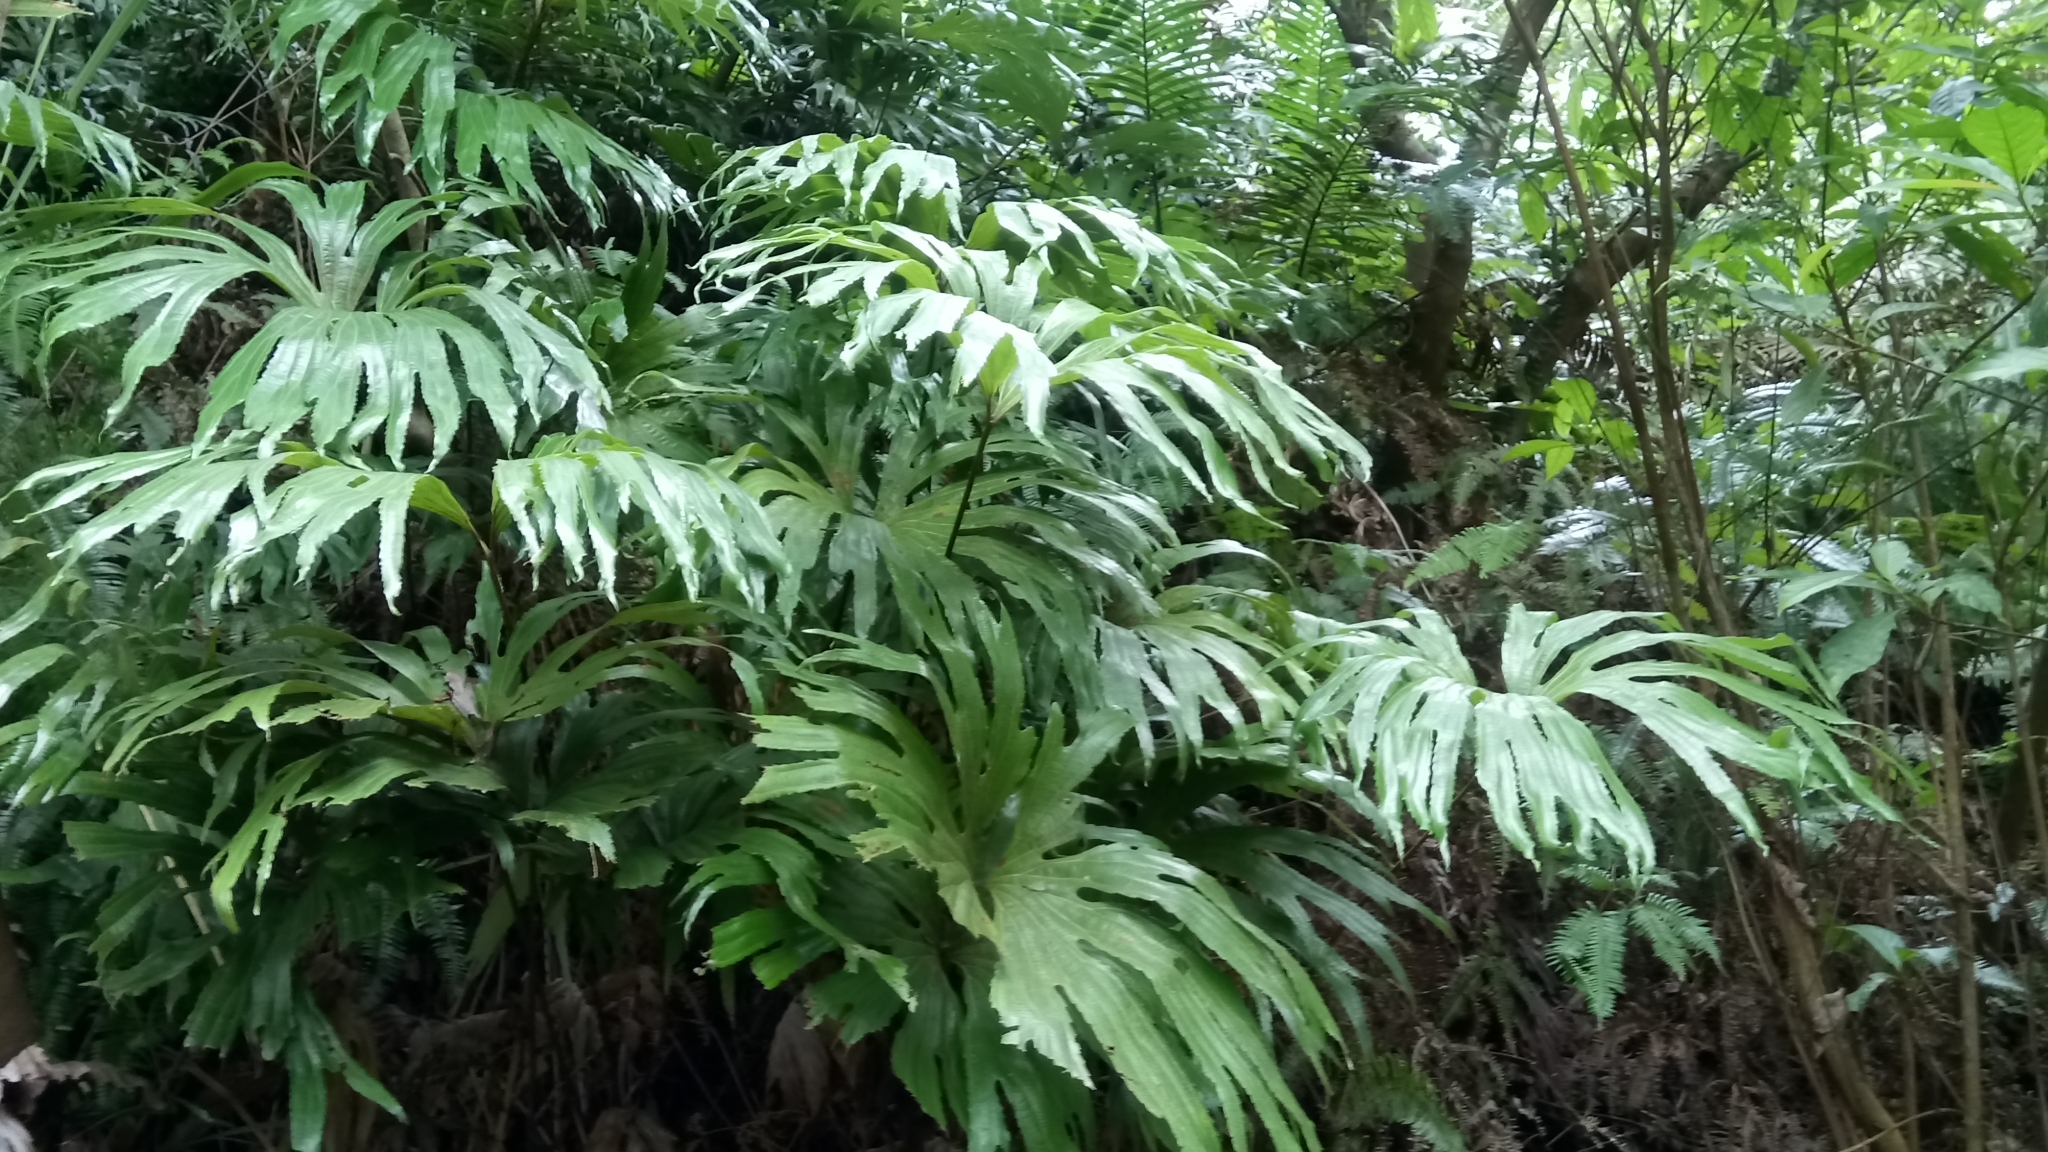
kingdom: Plantae
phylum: Tracheophyta
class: Polypodiopsida
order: Gleicheniales
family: Dipteridaceae
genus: Dipteris
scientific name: Dipteris conjugata
